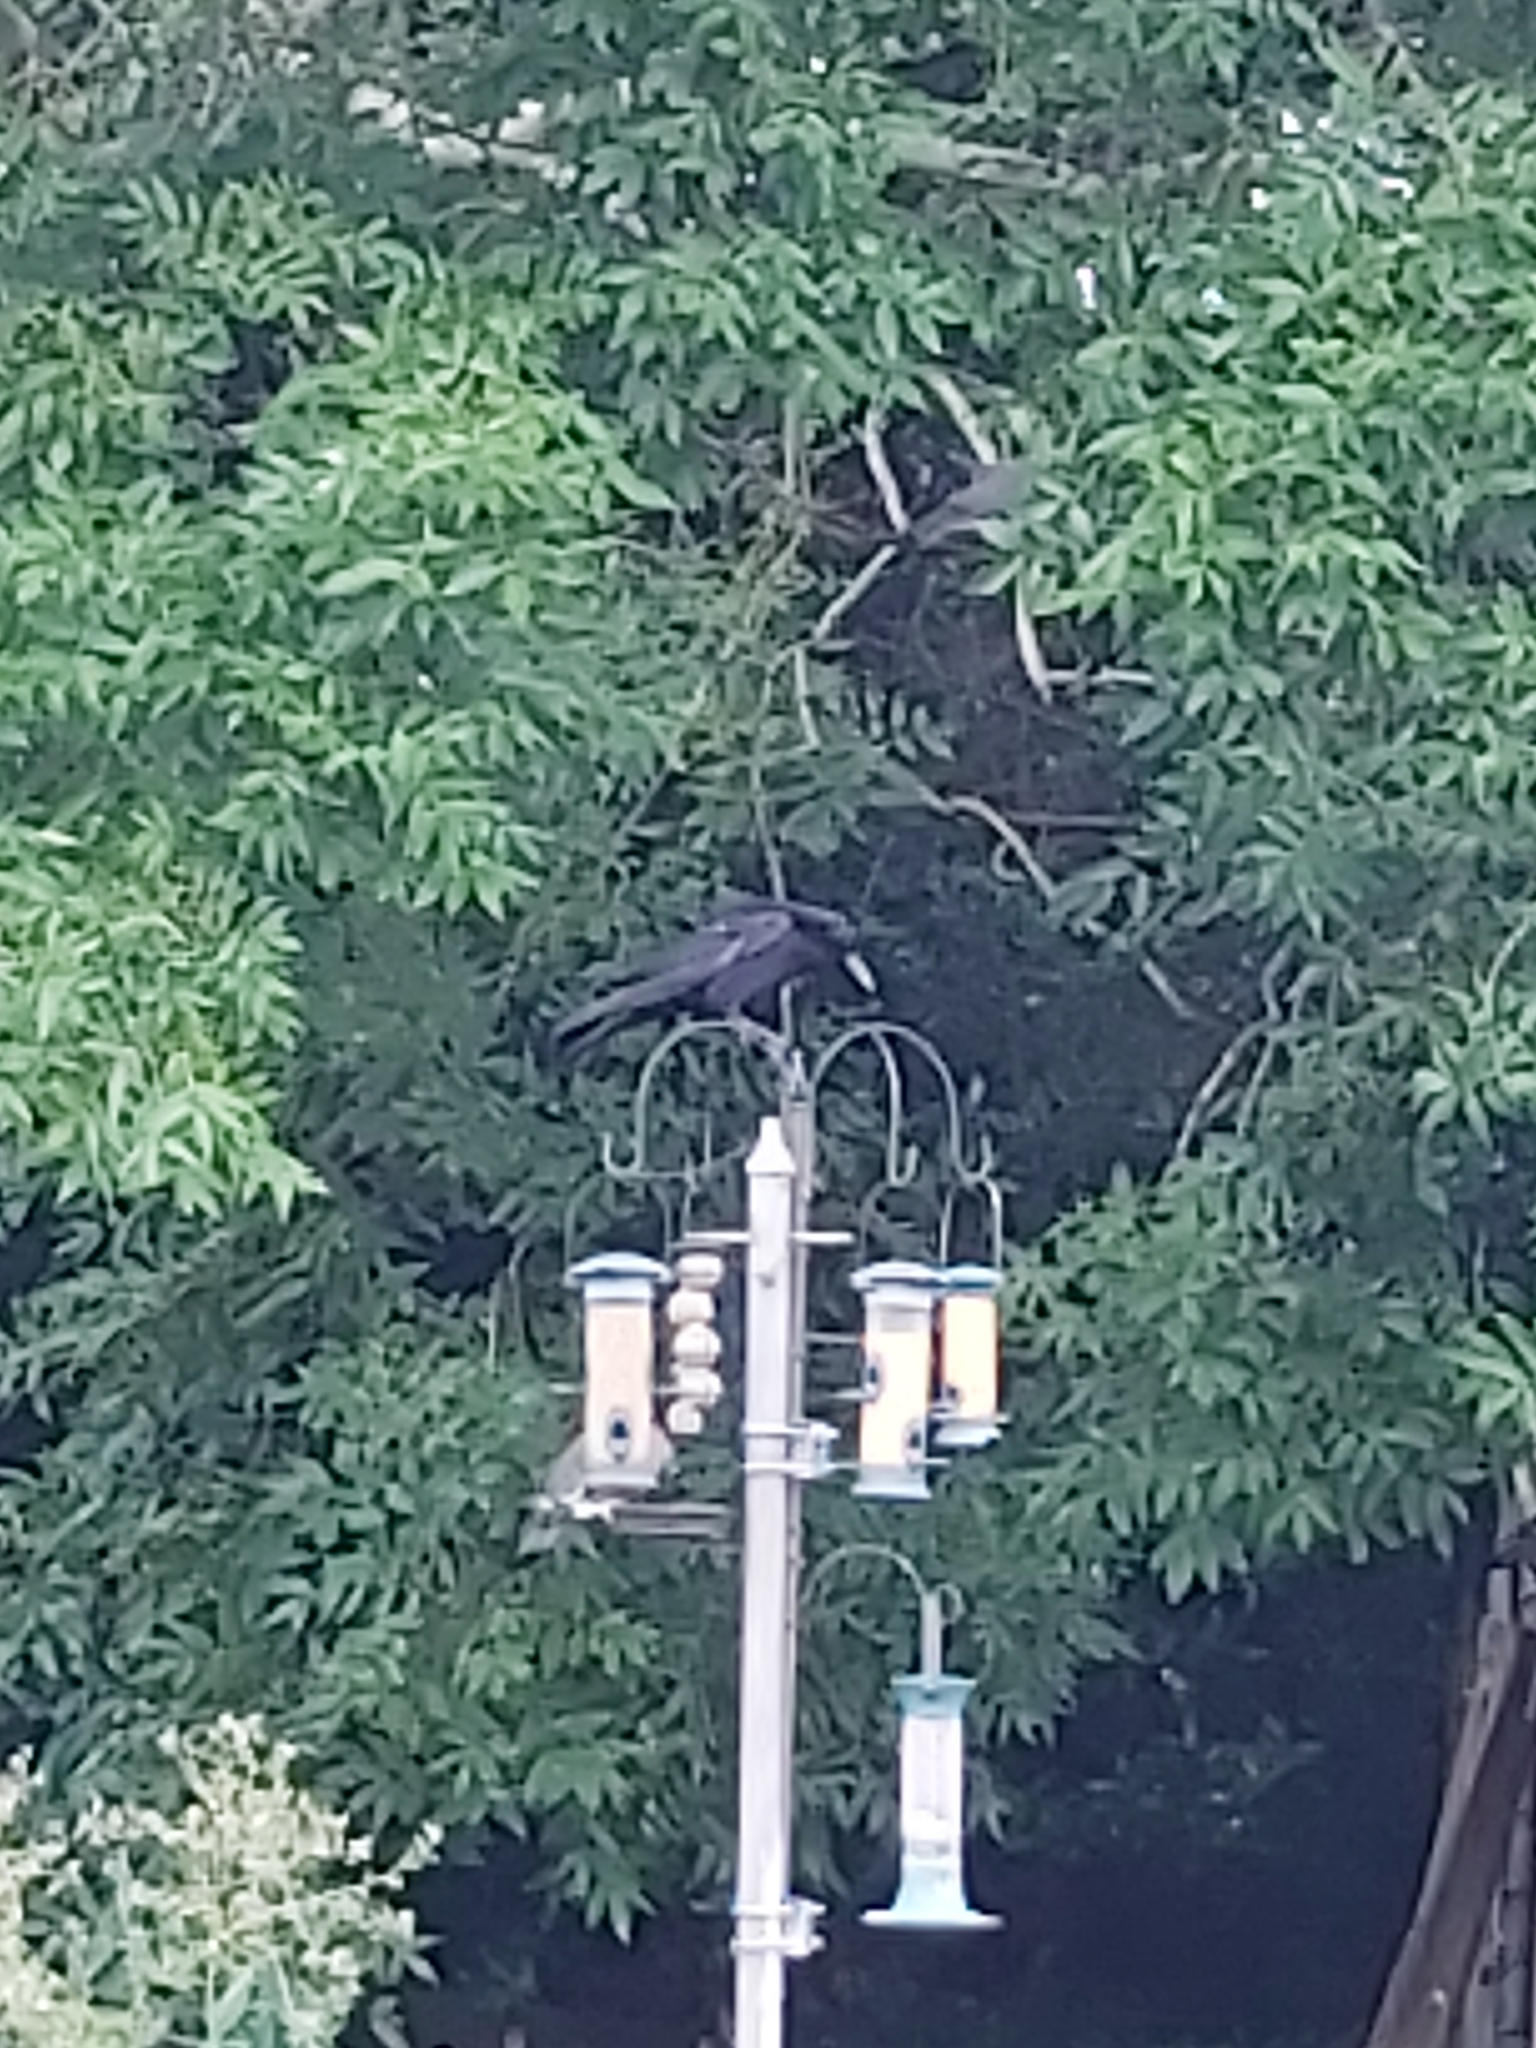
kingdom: Animalia
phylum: Chordata
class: Aves
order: Passeriformes
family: Corvidae
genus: Corvus
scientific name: Corvus corone
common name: Carrion crow
